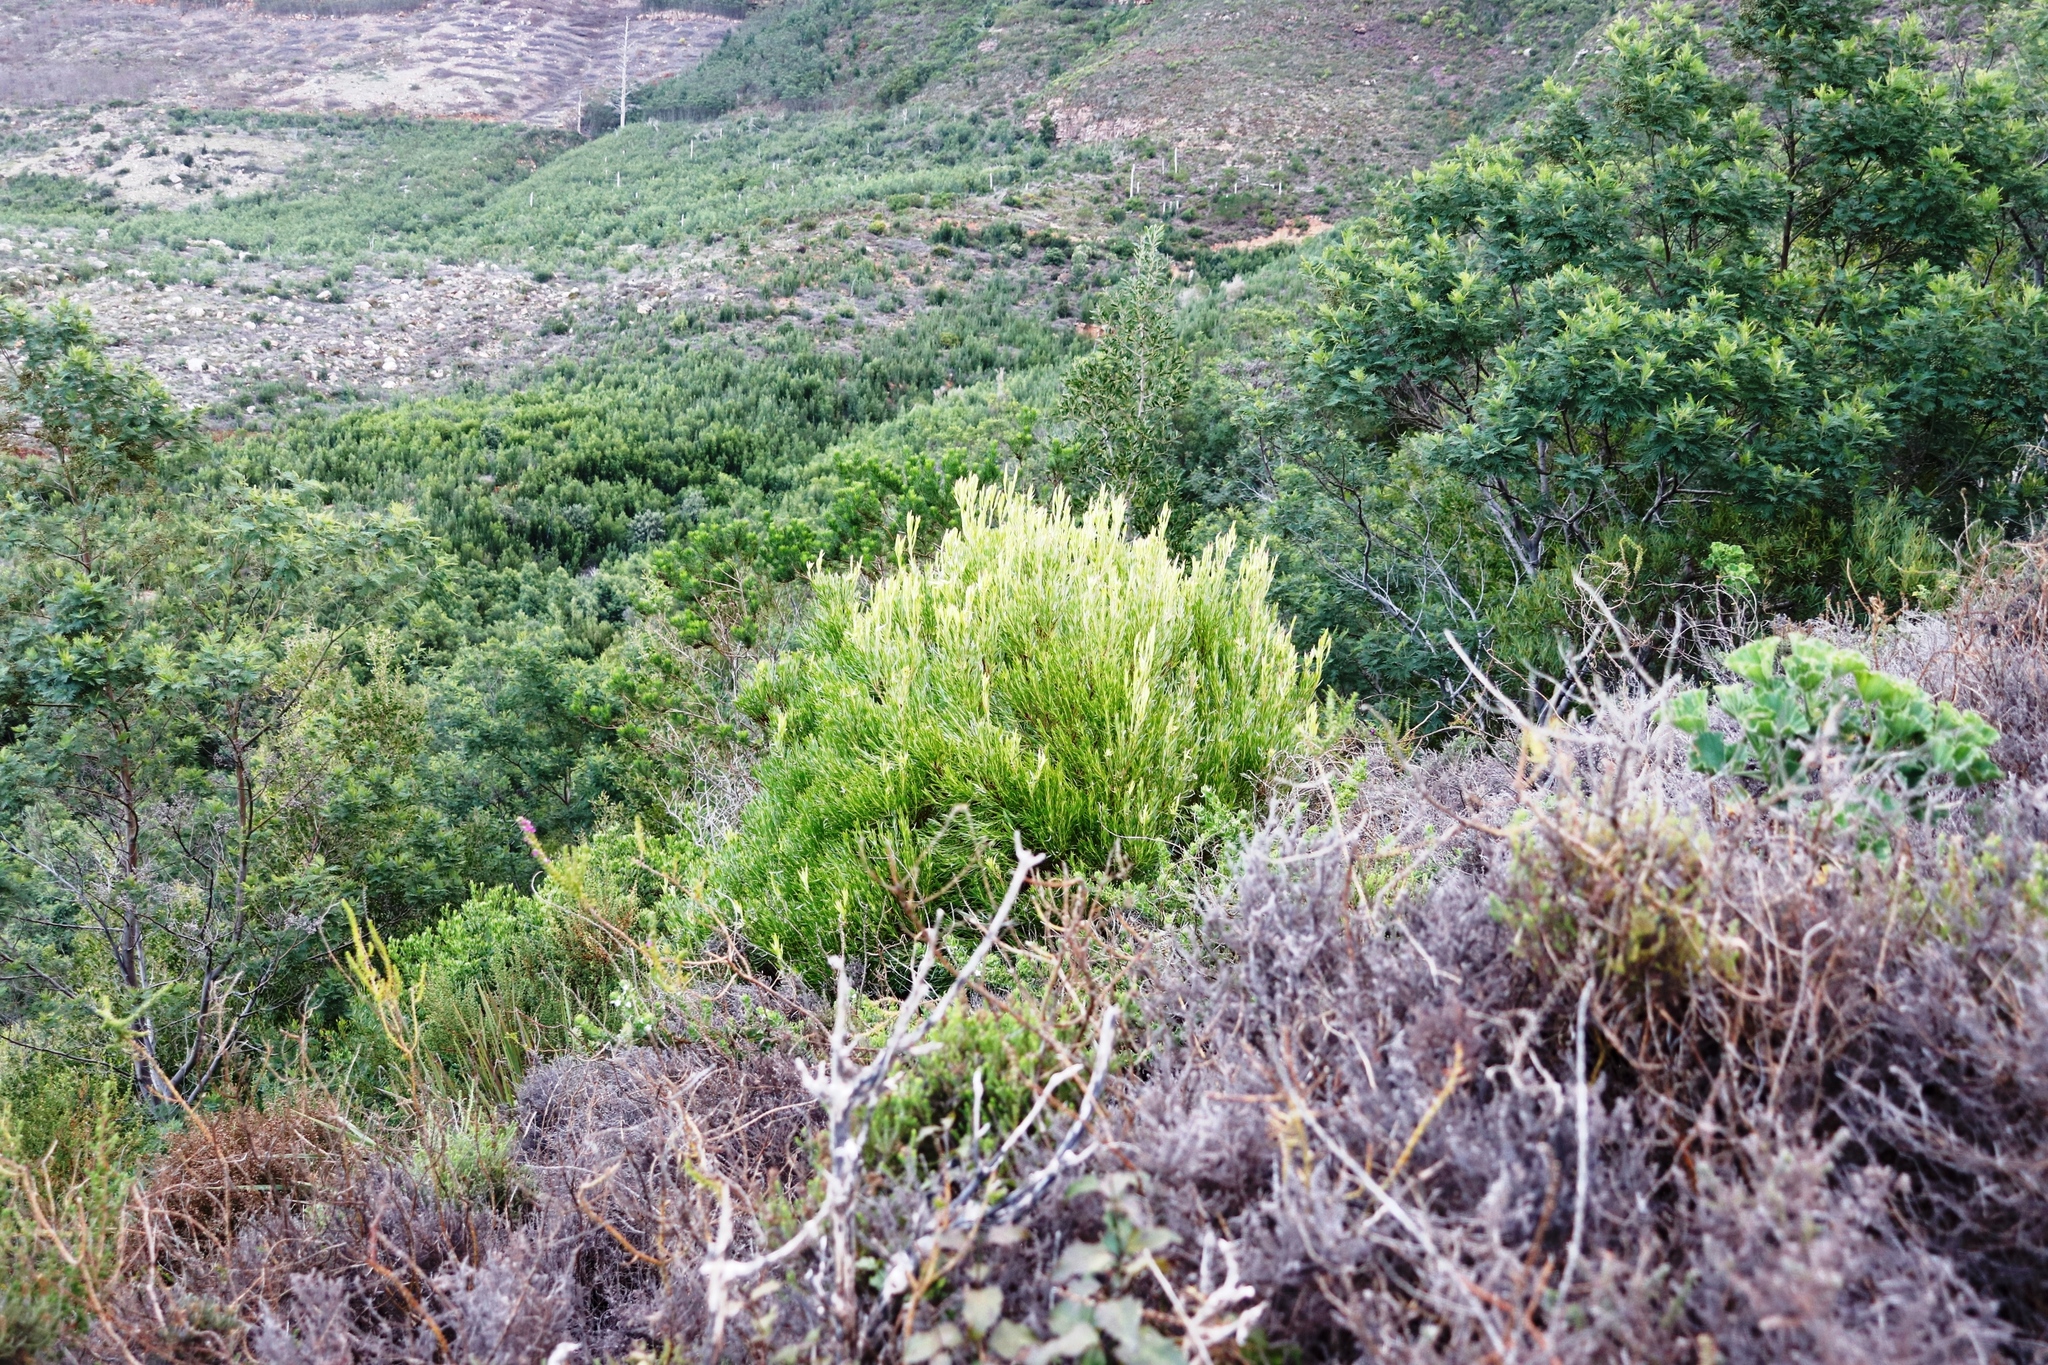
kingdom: Plantae
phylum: Tracheophyta
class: Magnoliopsida
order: Proteales
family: Proteaceae
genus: Leucadendron
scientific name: Leucadendron xanthoconus
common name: Sickle-leaf conebush
